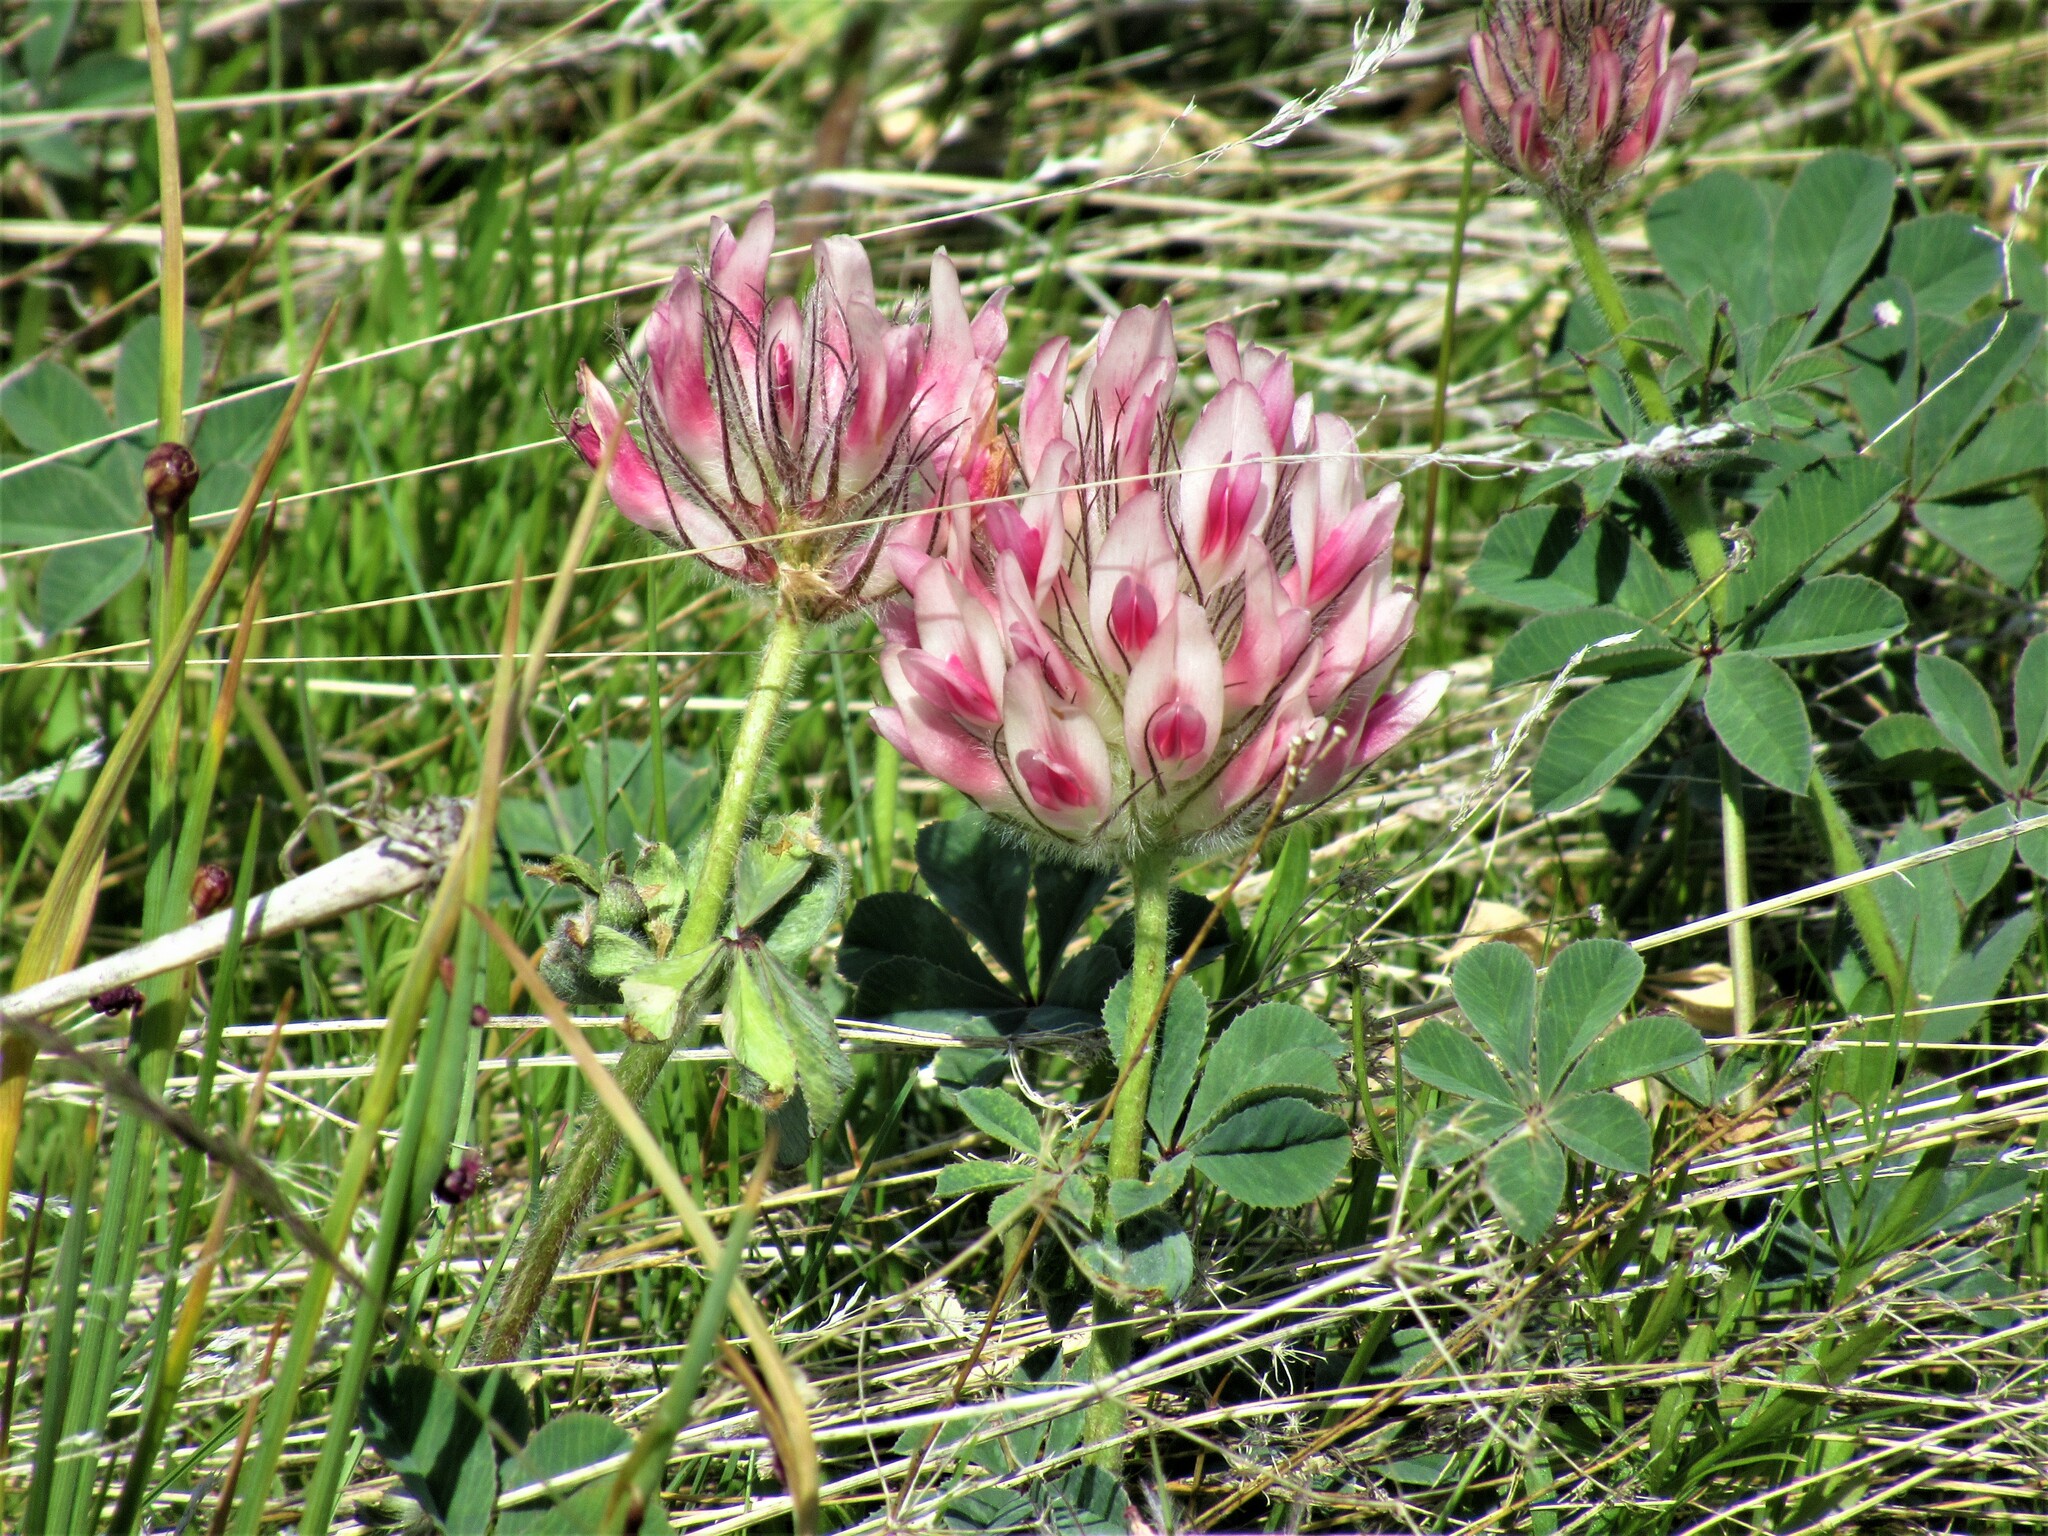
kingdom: Plantae
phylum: Tracheophyta
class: Magnoliopsida
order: Fabales
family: Fabaceae
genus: Trifolium
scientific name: Trifolium macrocephalum
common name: Large-head clover
